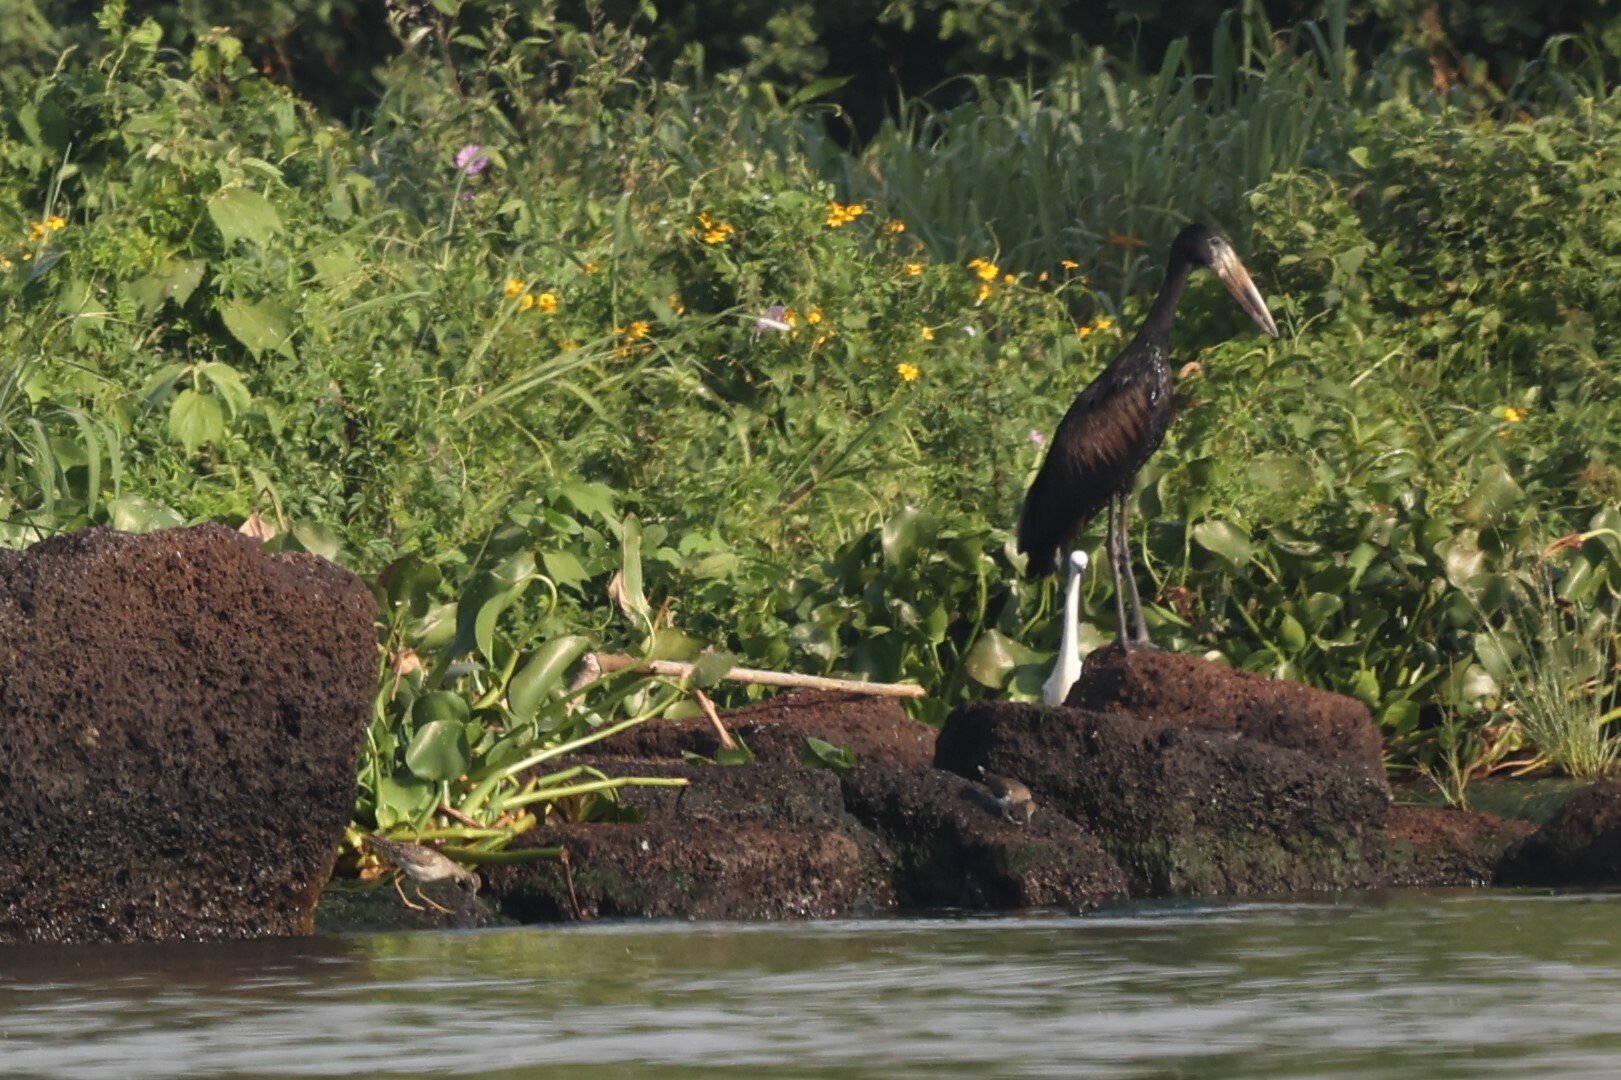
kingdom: Animalia
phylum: Chordata
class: Aves
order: Charadriiformes
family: Scolopacidae
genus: Tringa
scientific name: Tringa glareola
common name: Wood sandpiper
